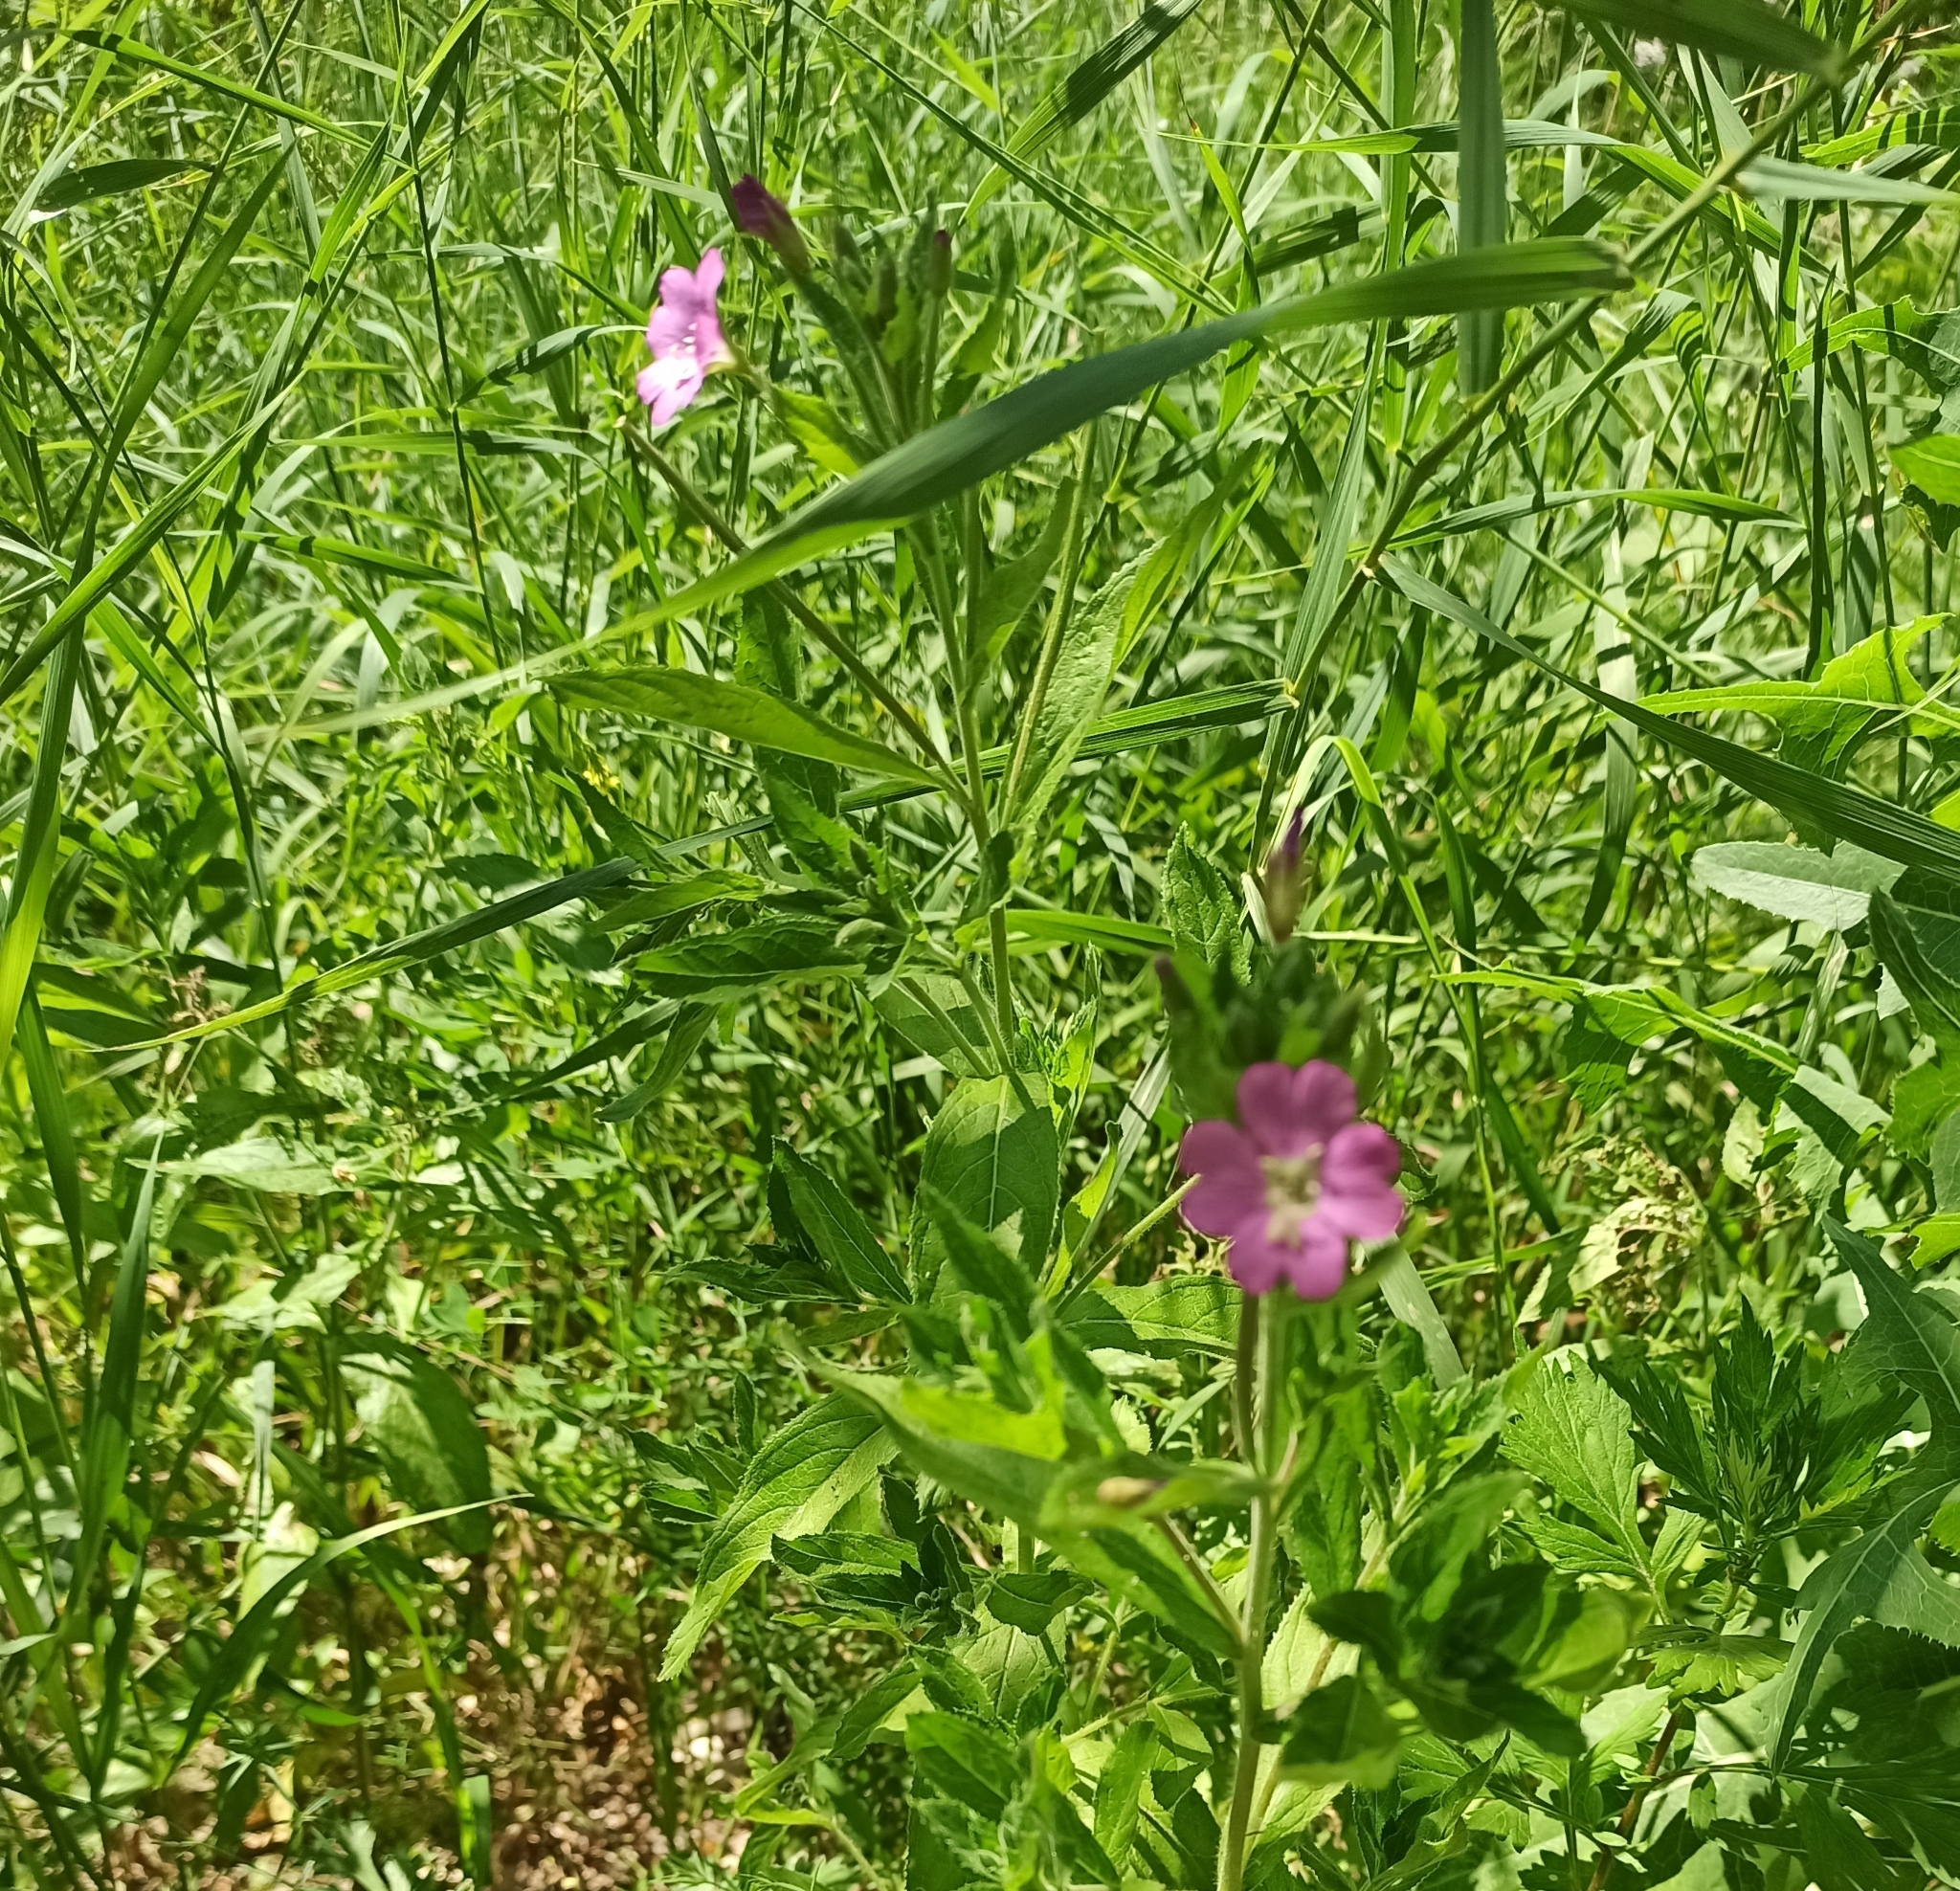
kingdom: Plantae
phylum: Tracheophyta
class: Magnoliopsida
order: Myrtales
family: Onagraceae
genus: Epilobium
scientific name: Epilobium hirsutum
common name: Great willowherb
